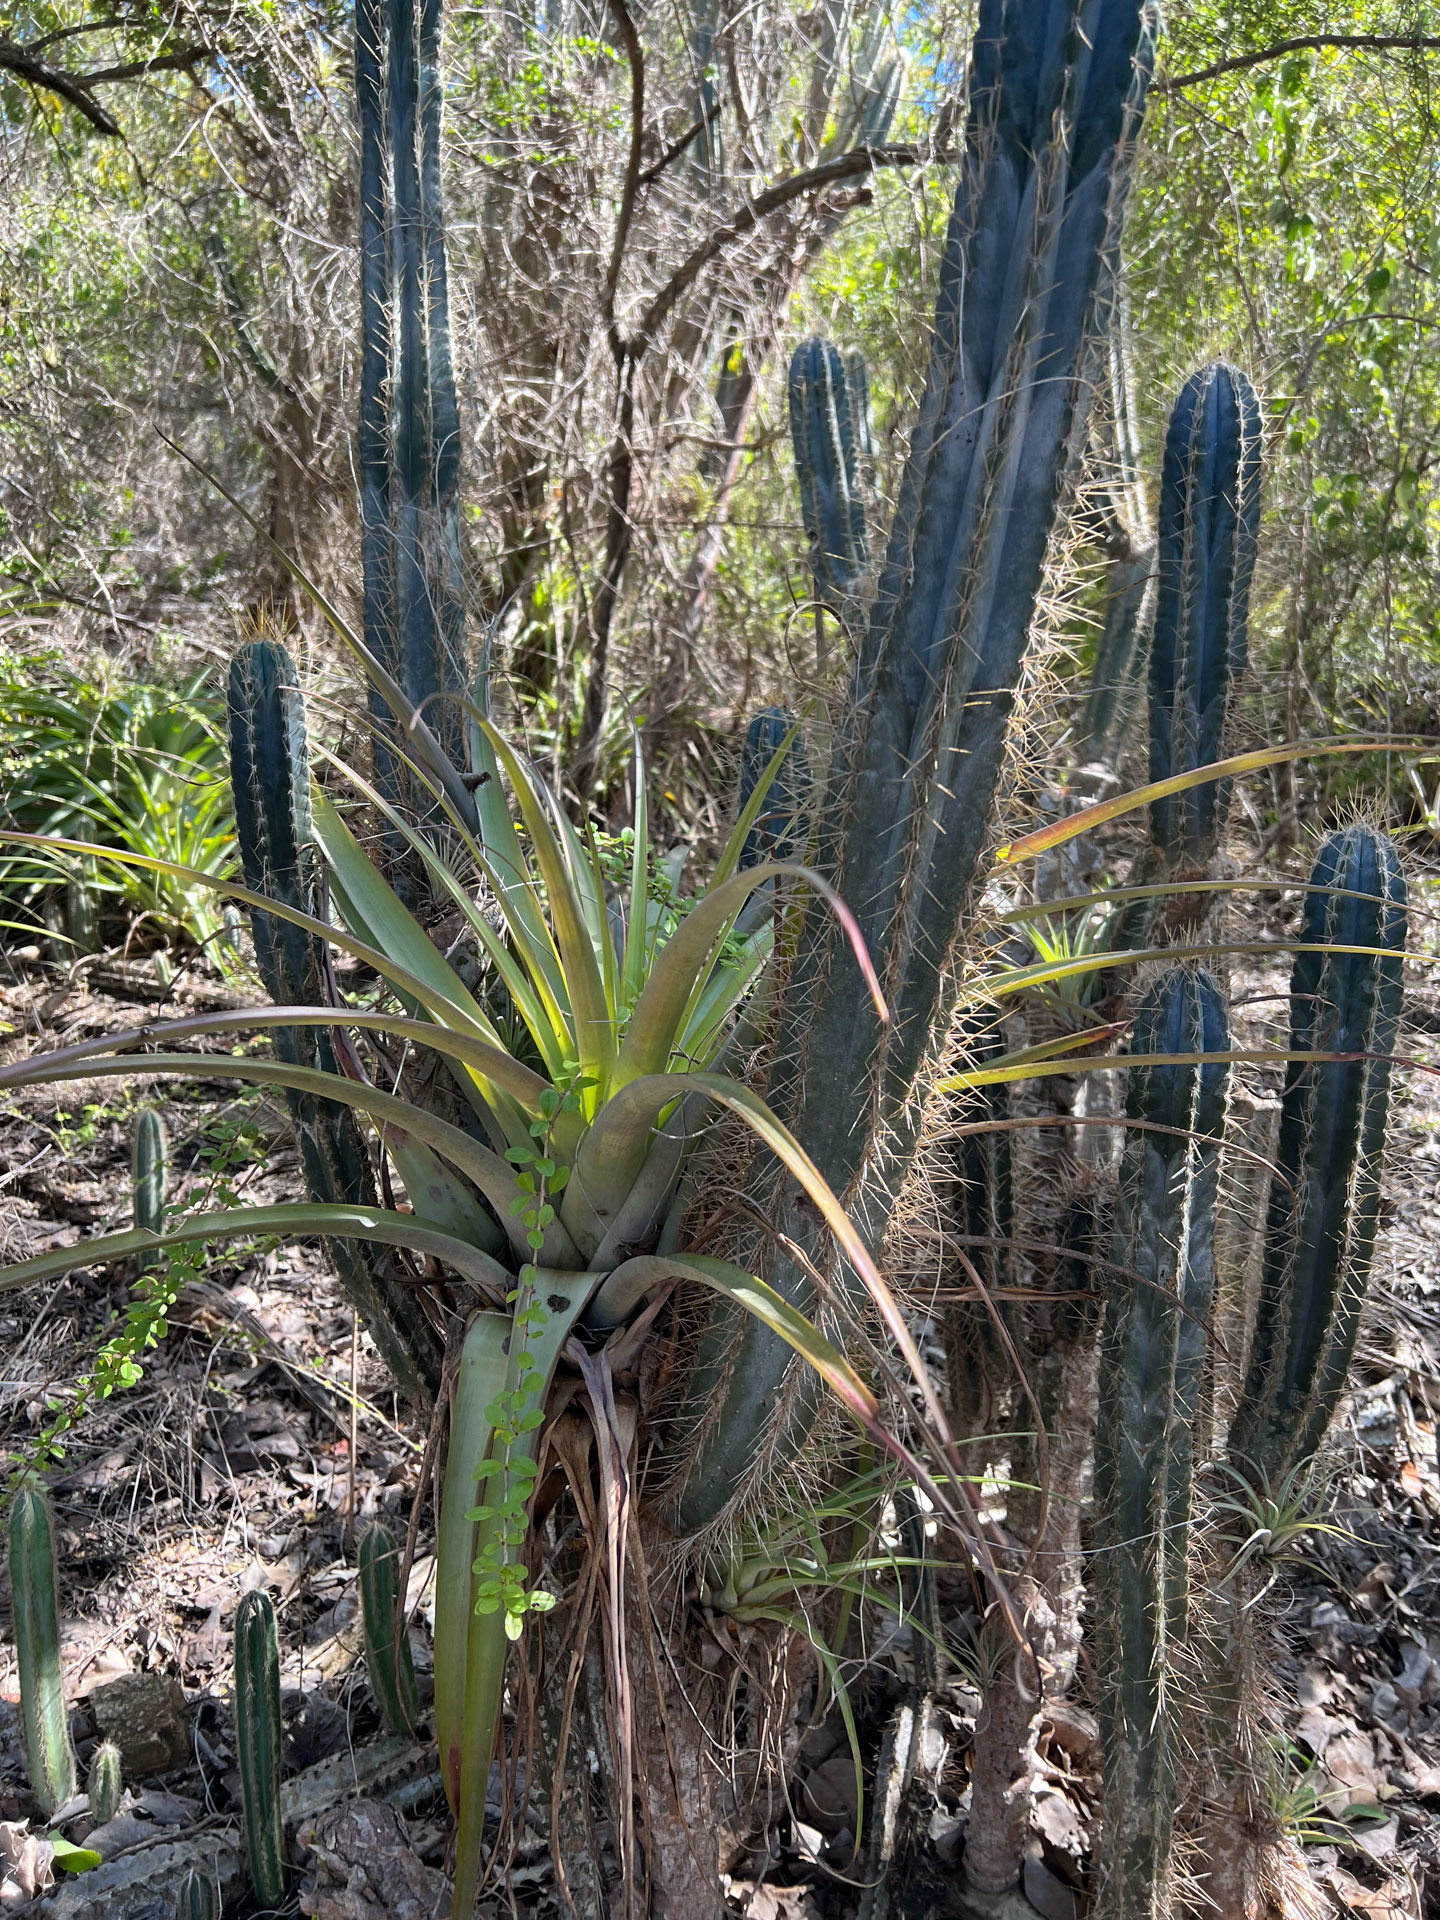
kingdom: Plantae
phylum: Tracheophyta
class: Liliopsida
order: Poales
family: Bromeliaceae
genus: Tillandsia
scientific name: Tillandsia utriculata
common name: Wild pine
